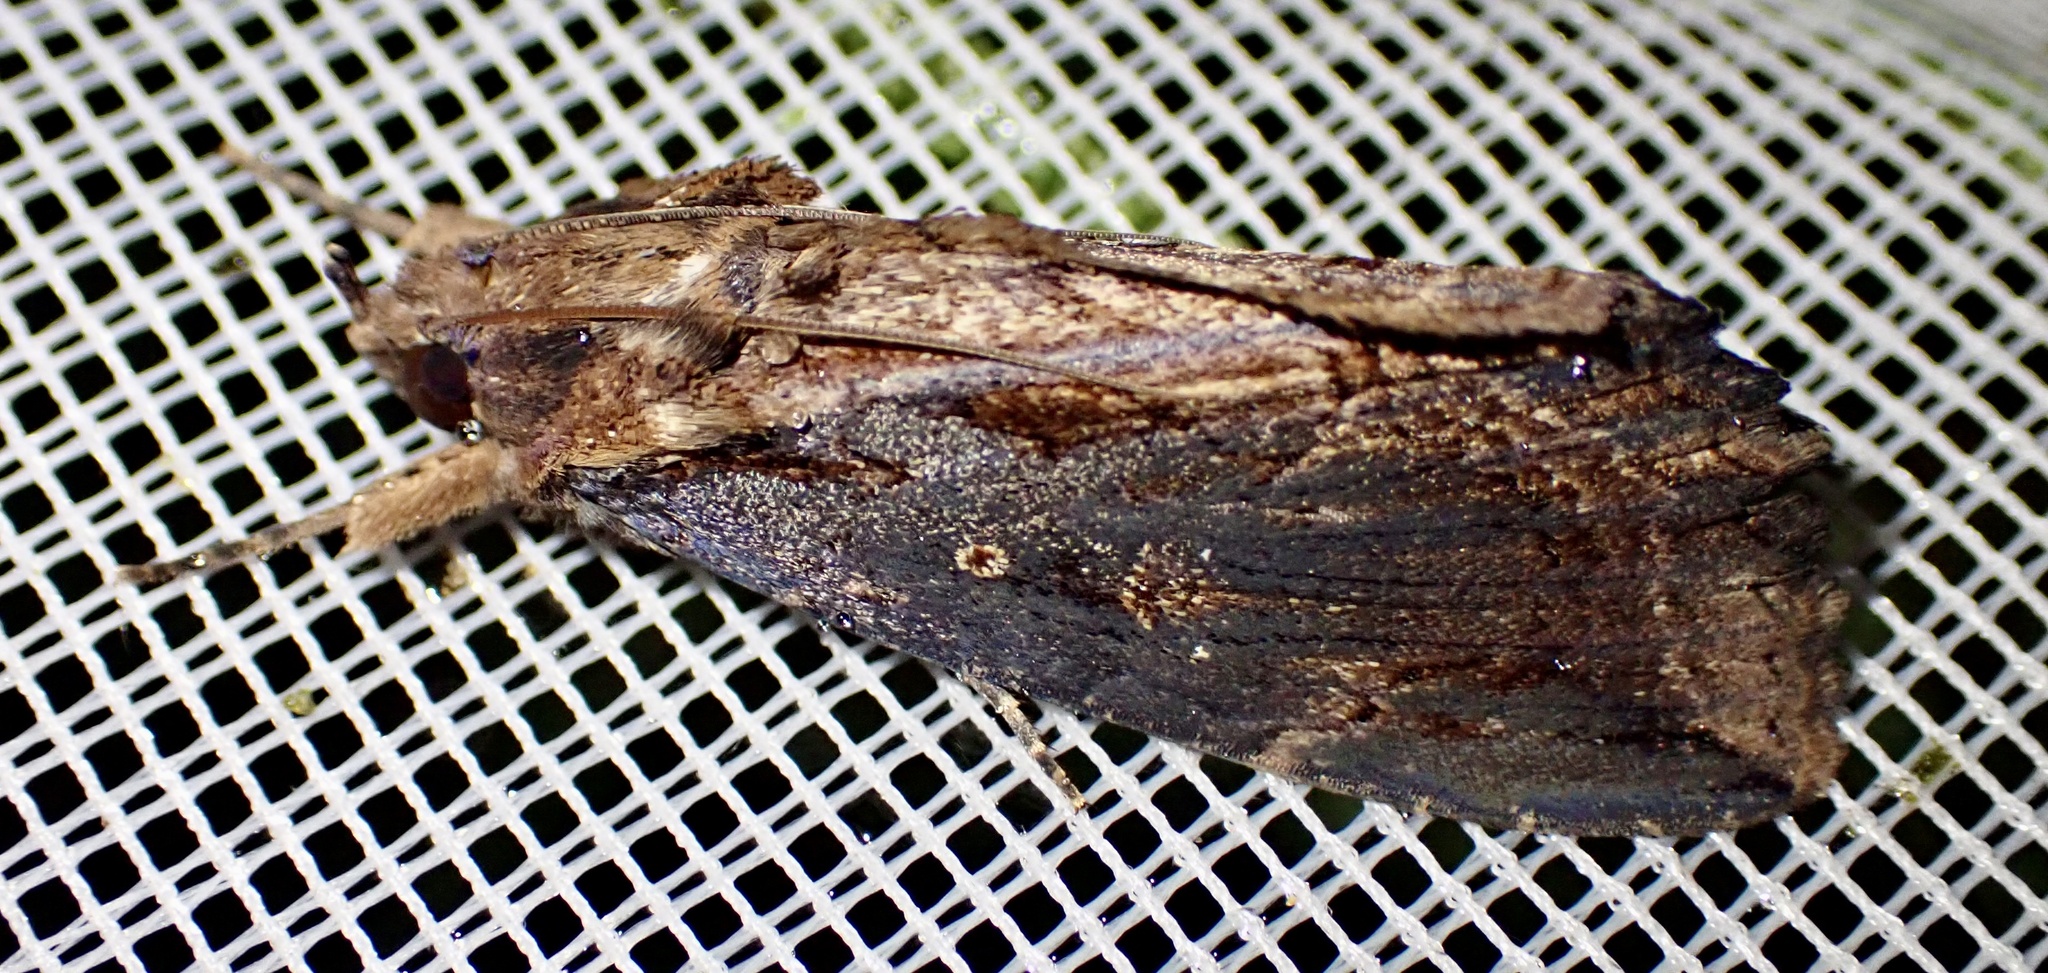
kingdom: Animalia
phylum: Arthropoda
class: Insecta
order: Lepidoptera
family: Erebidae
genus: Ercheia
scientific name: Ercheia dubia
